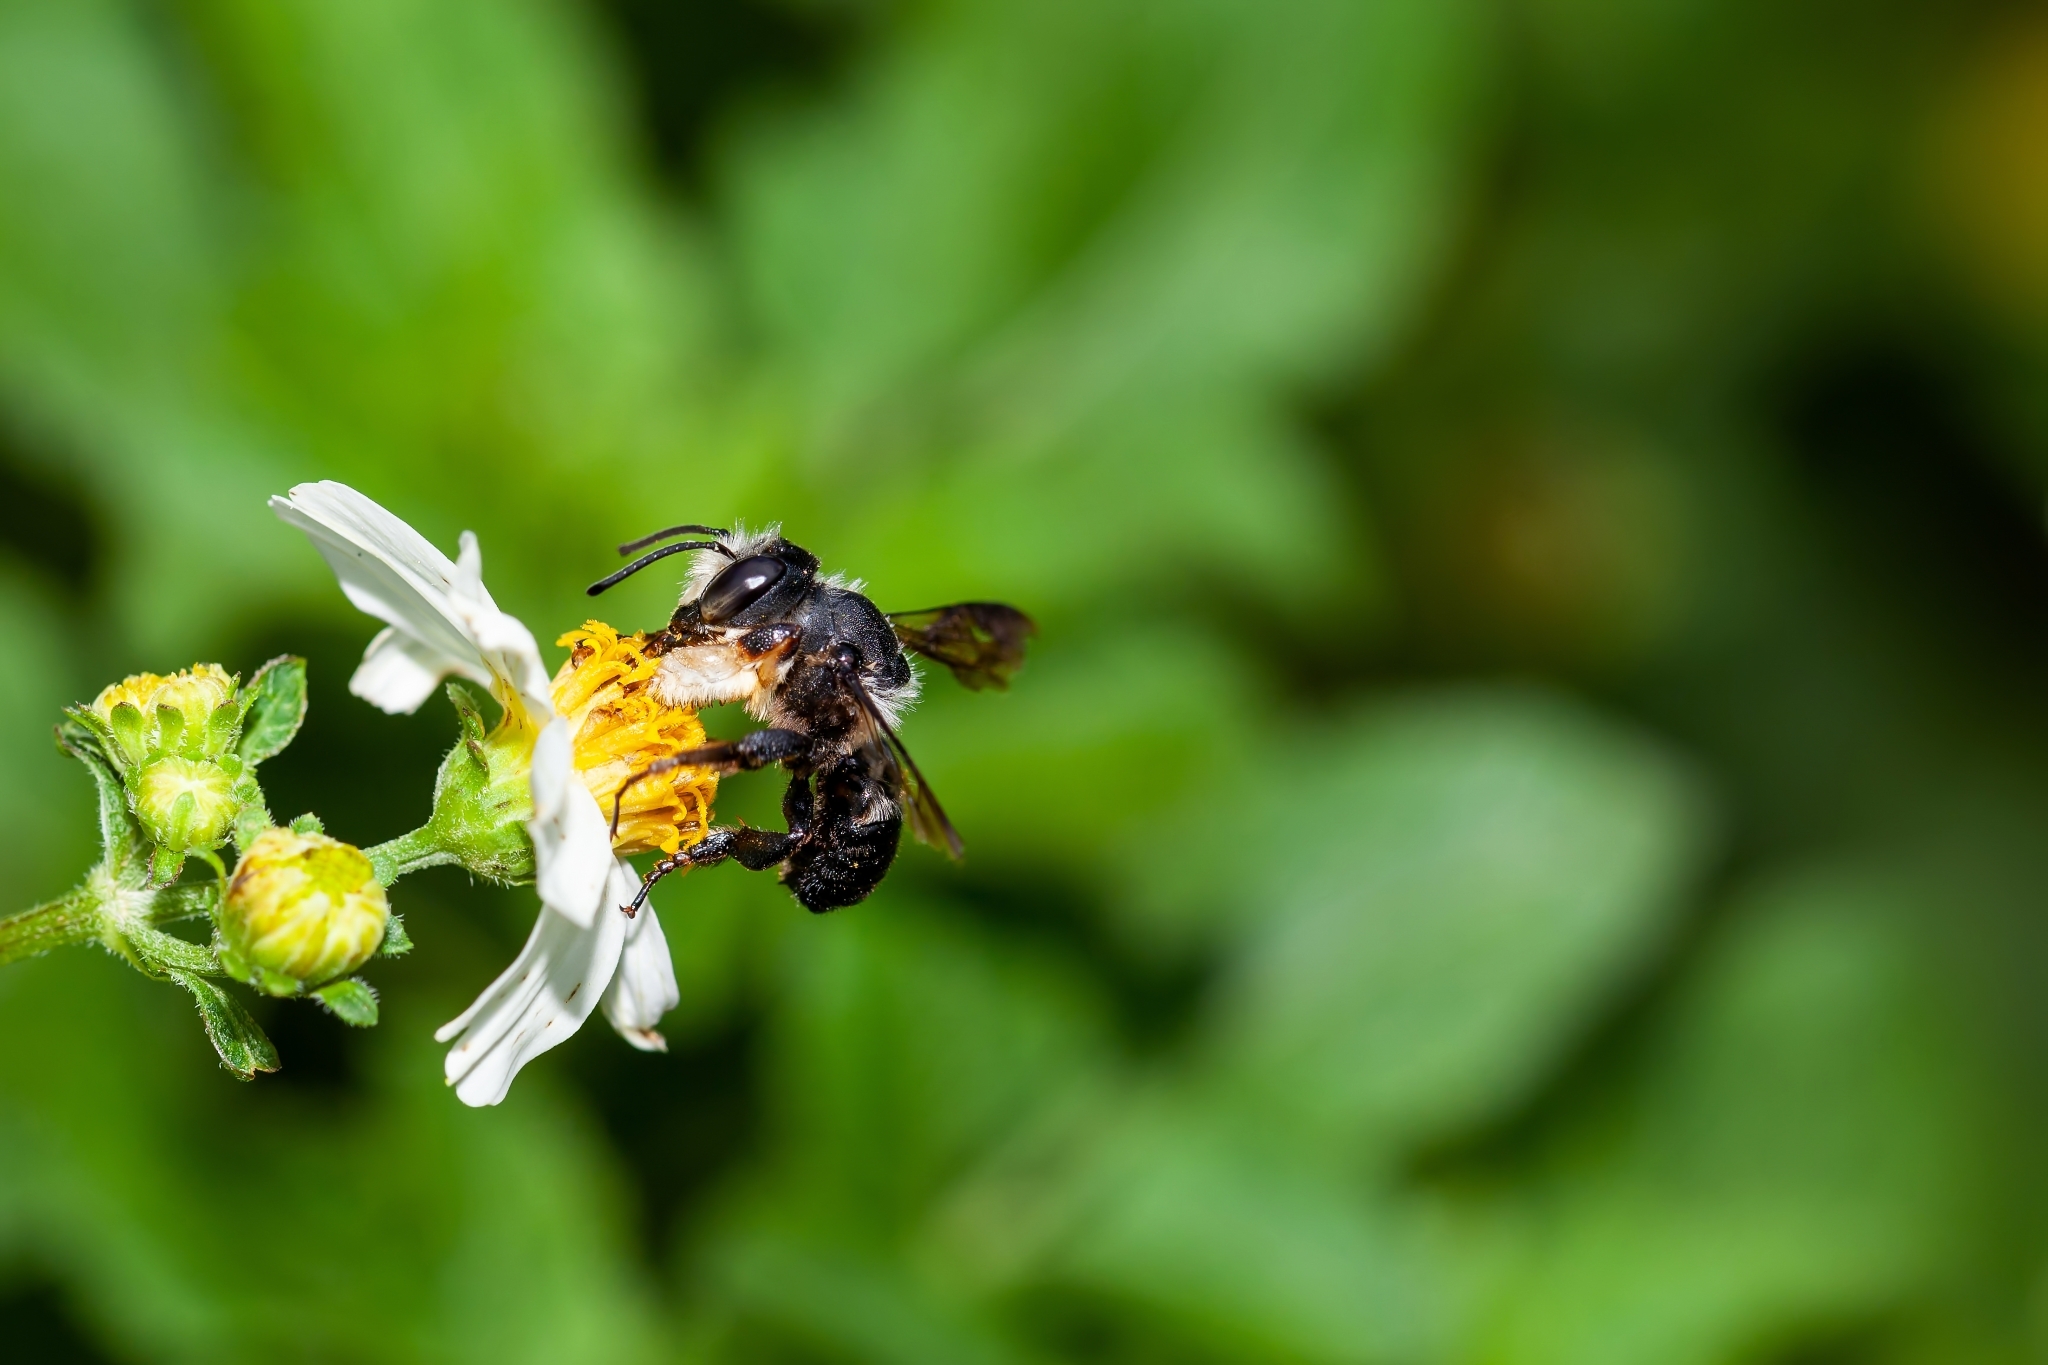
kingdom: Animalia
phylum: Arthropoda
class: Insecta
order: Hymenoptera
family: Megachilidae
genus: Megachile
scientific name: Megachile xylocopoides
